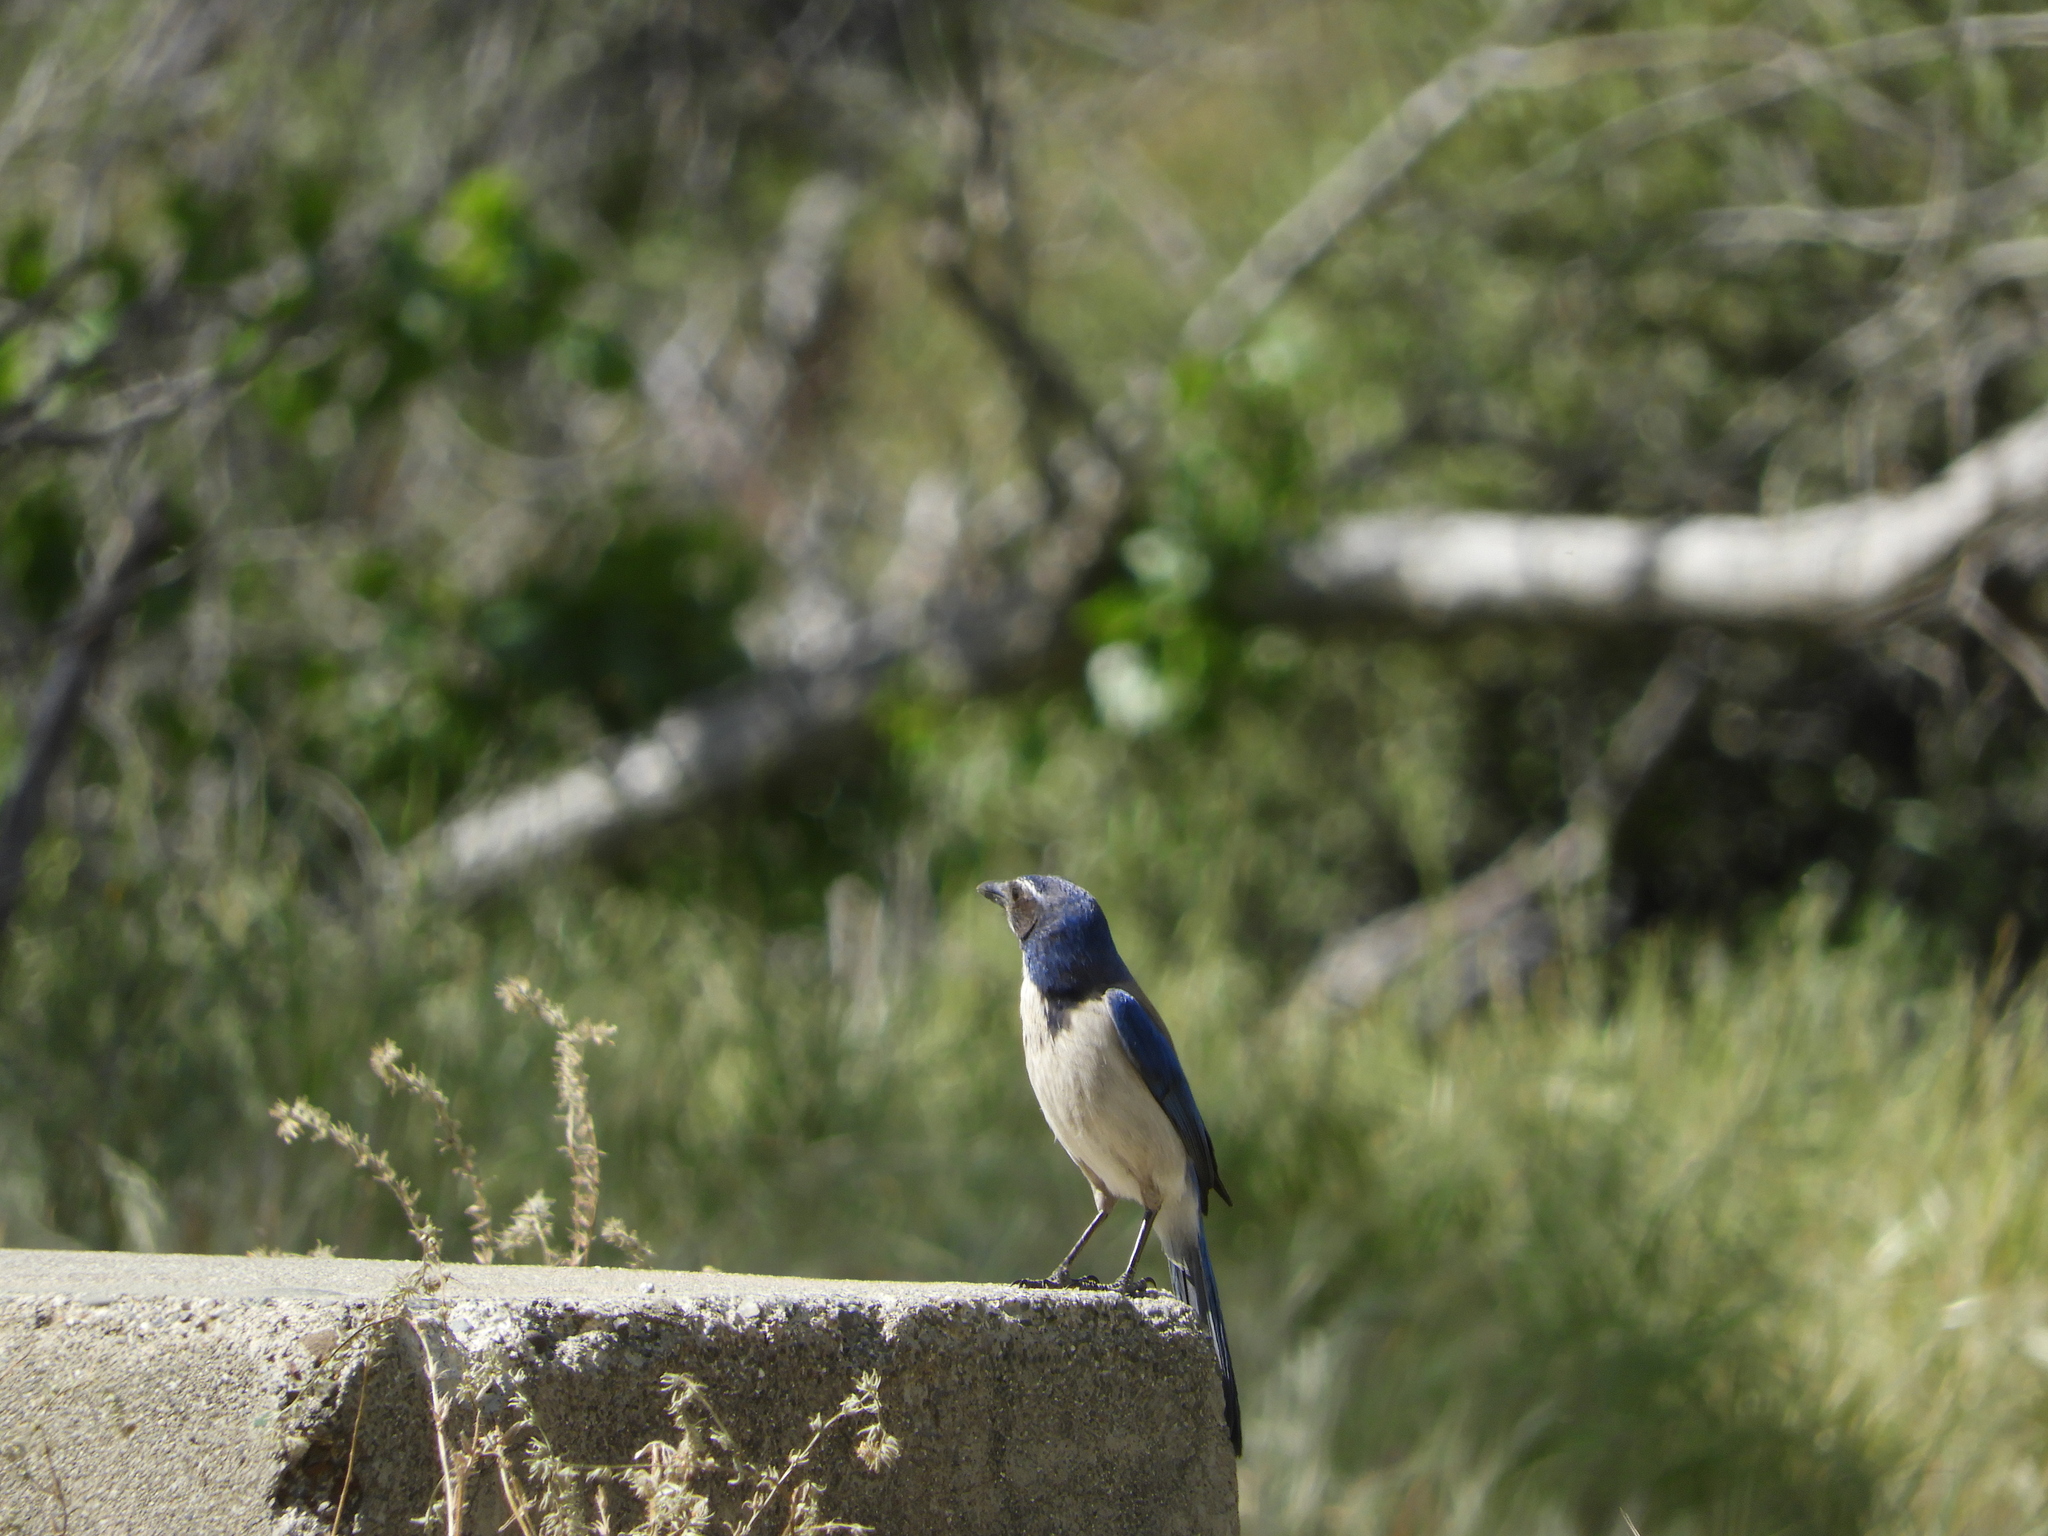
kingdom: Animalia
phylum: Chordata
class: Aves
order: Passeriformes
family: Corvidae
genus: Aphelocoma
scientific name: Aphelocoma californica
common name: California scrub-jay
